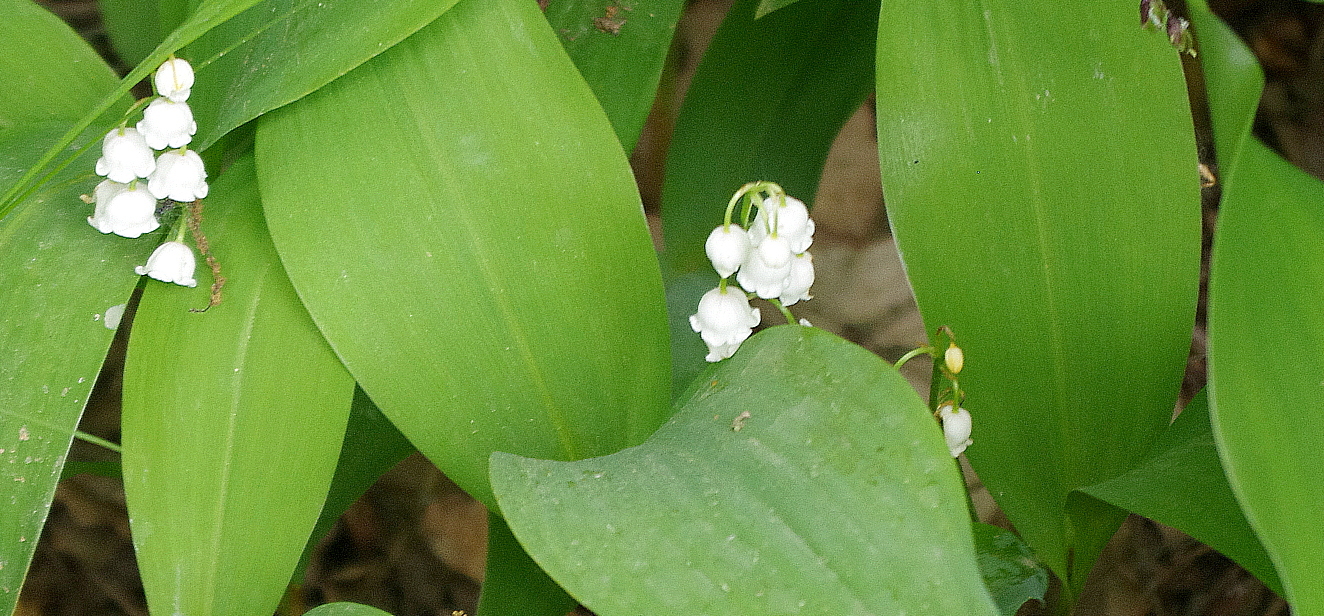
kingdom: Plantae
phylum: Tracheophyta
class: Liliopsida
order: Asparagales
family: Asparagaceae
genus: Convallaria
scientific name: Convallaria majalis
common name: Lily-of-the-valley
